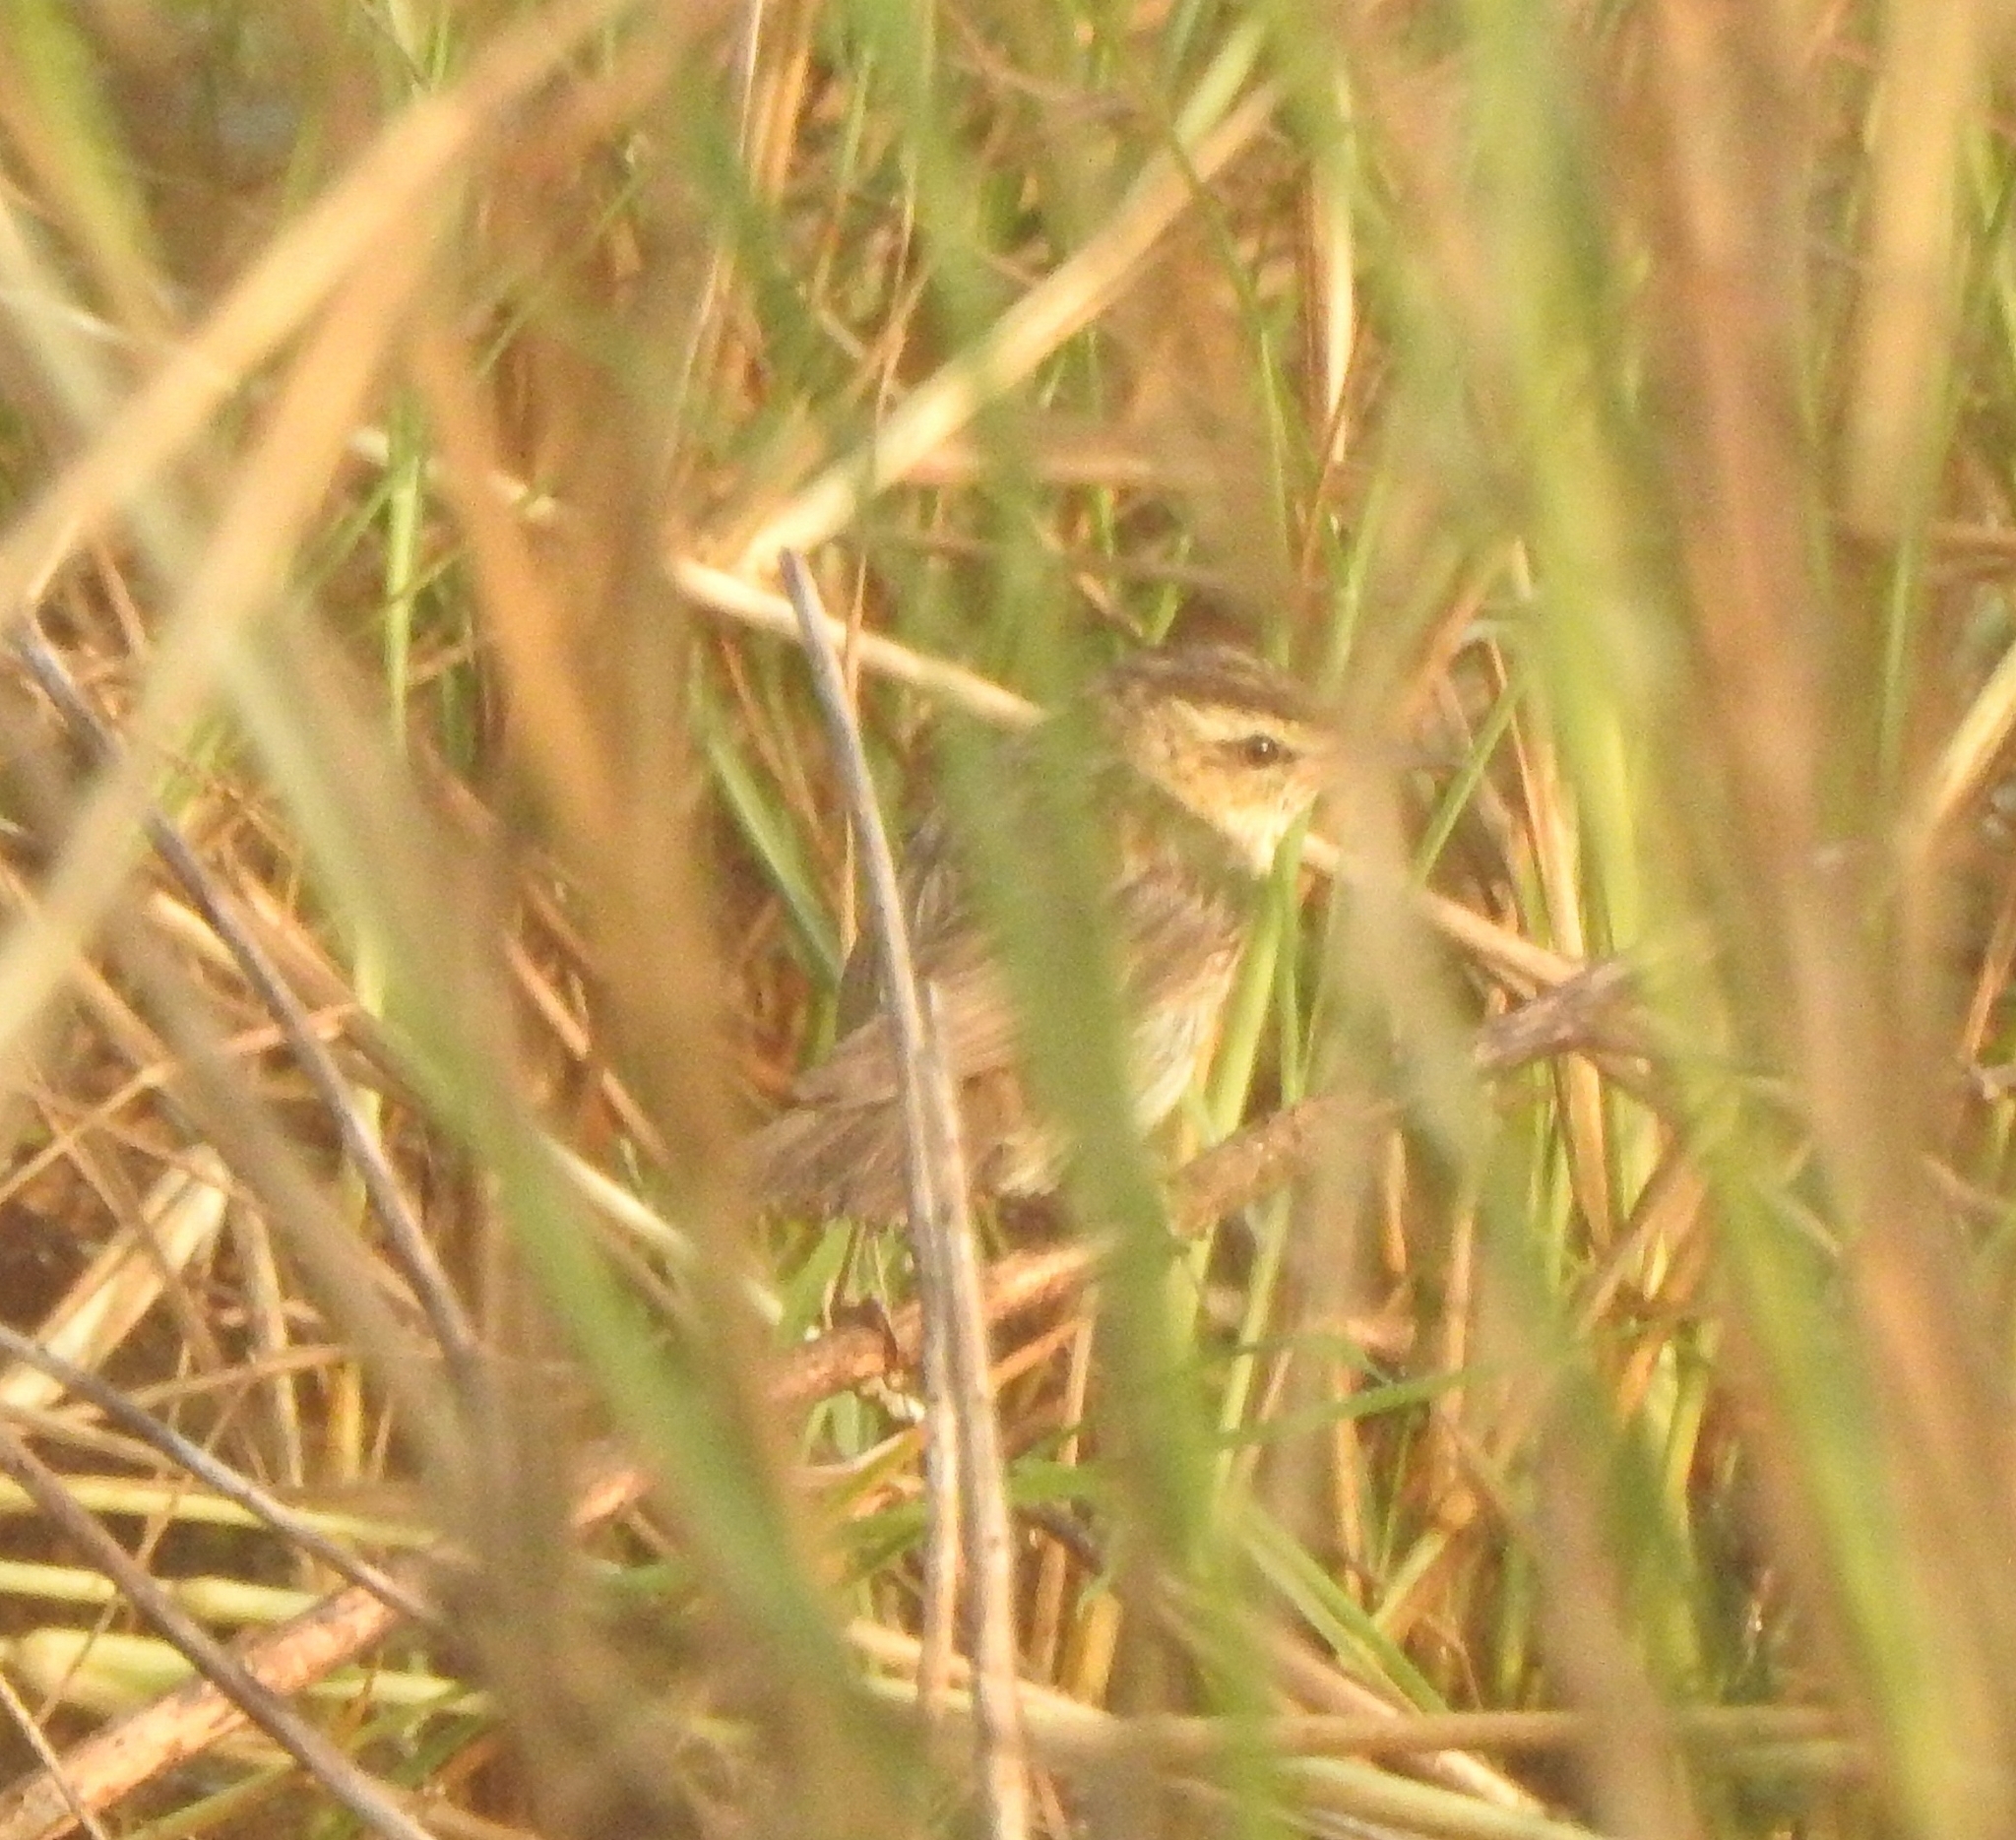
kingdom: Animalia
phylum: Chordata
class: Aves
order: Passeriformes
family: Acrocephalidae
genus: Acrocephalus
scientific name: Acrocephalus schoenobaenus
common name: Sedge warbler
